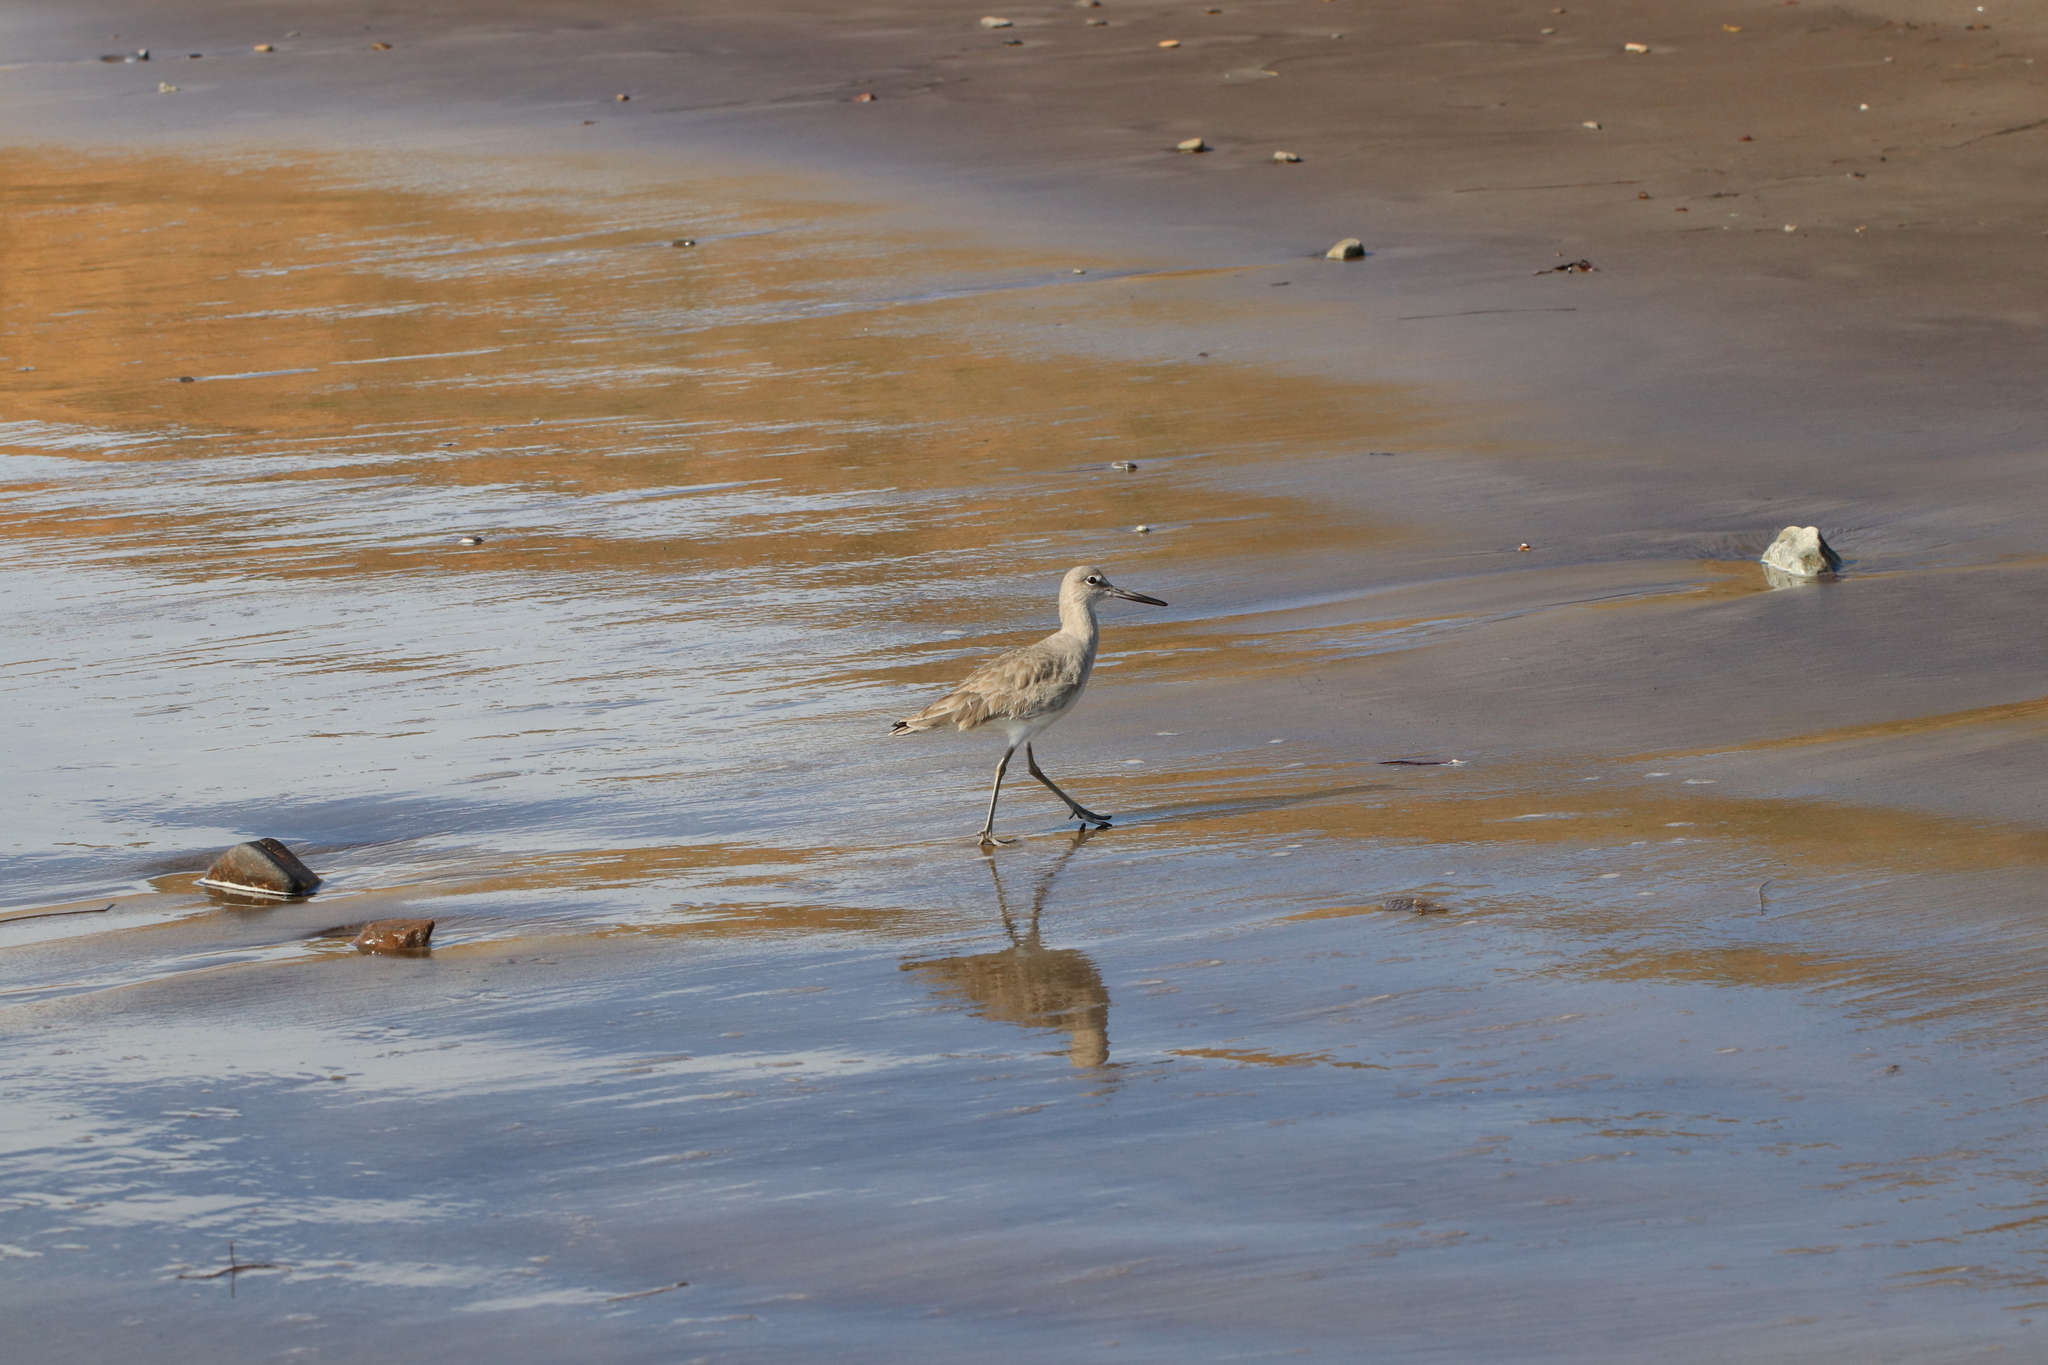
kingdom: Animalia
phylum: Chordata
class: Aves
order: Charadriiformes
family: Scolopacidae
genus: Tringa
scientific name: Tringa semipalmata
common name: Willet
